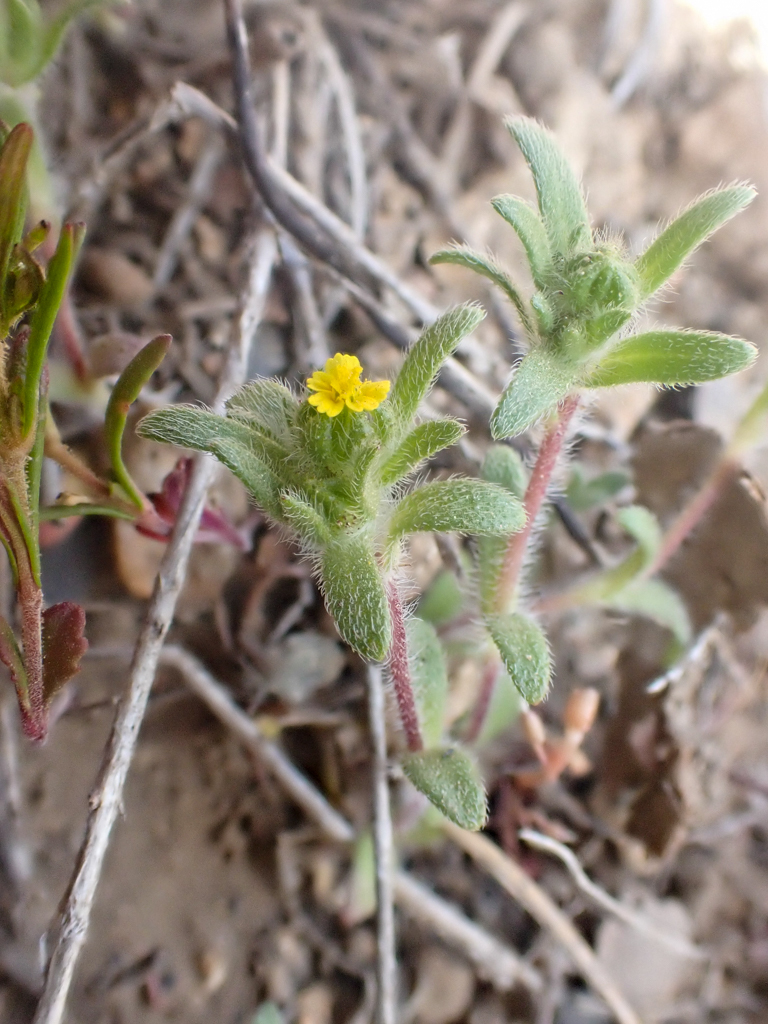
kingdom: Plantae
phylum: Tracheophyta
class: Magnoliopsida
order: Asterales
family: Asteraceae
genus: Hemizonella
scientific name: Hemizonella minima
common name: Opposite-leaved tarweed
